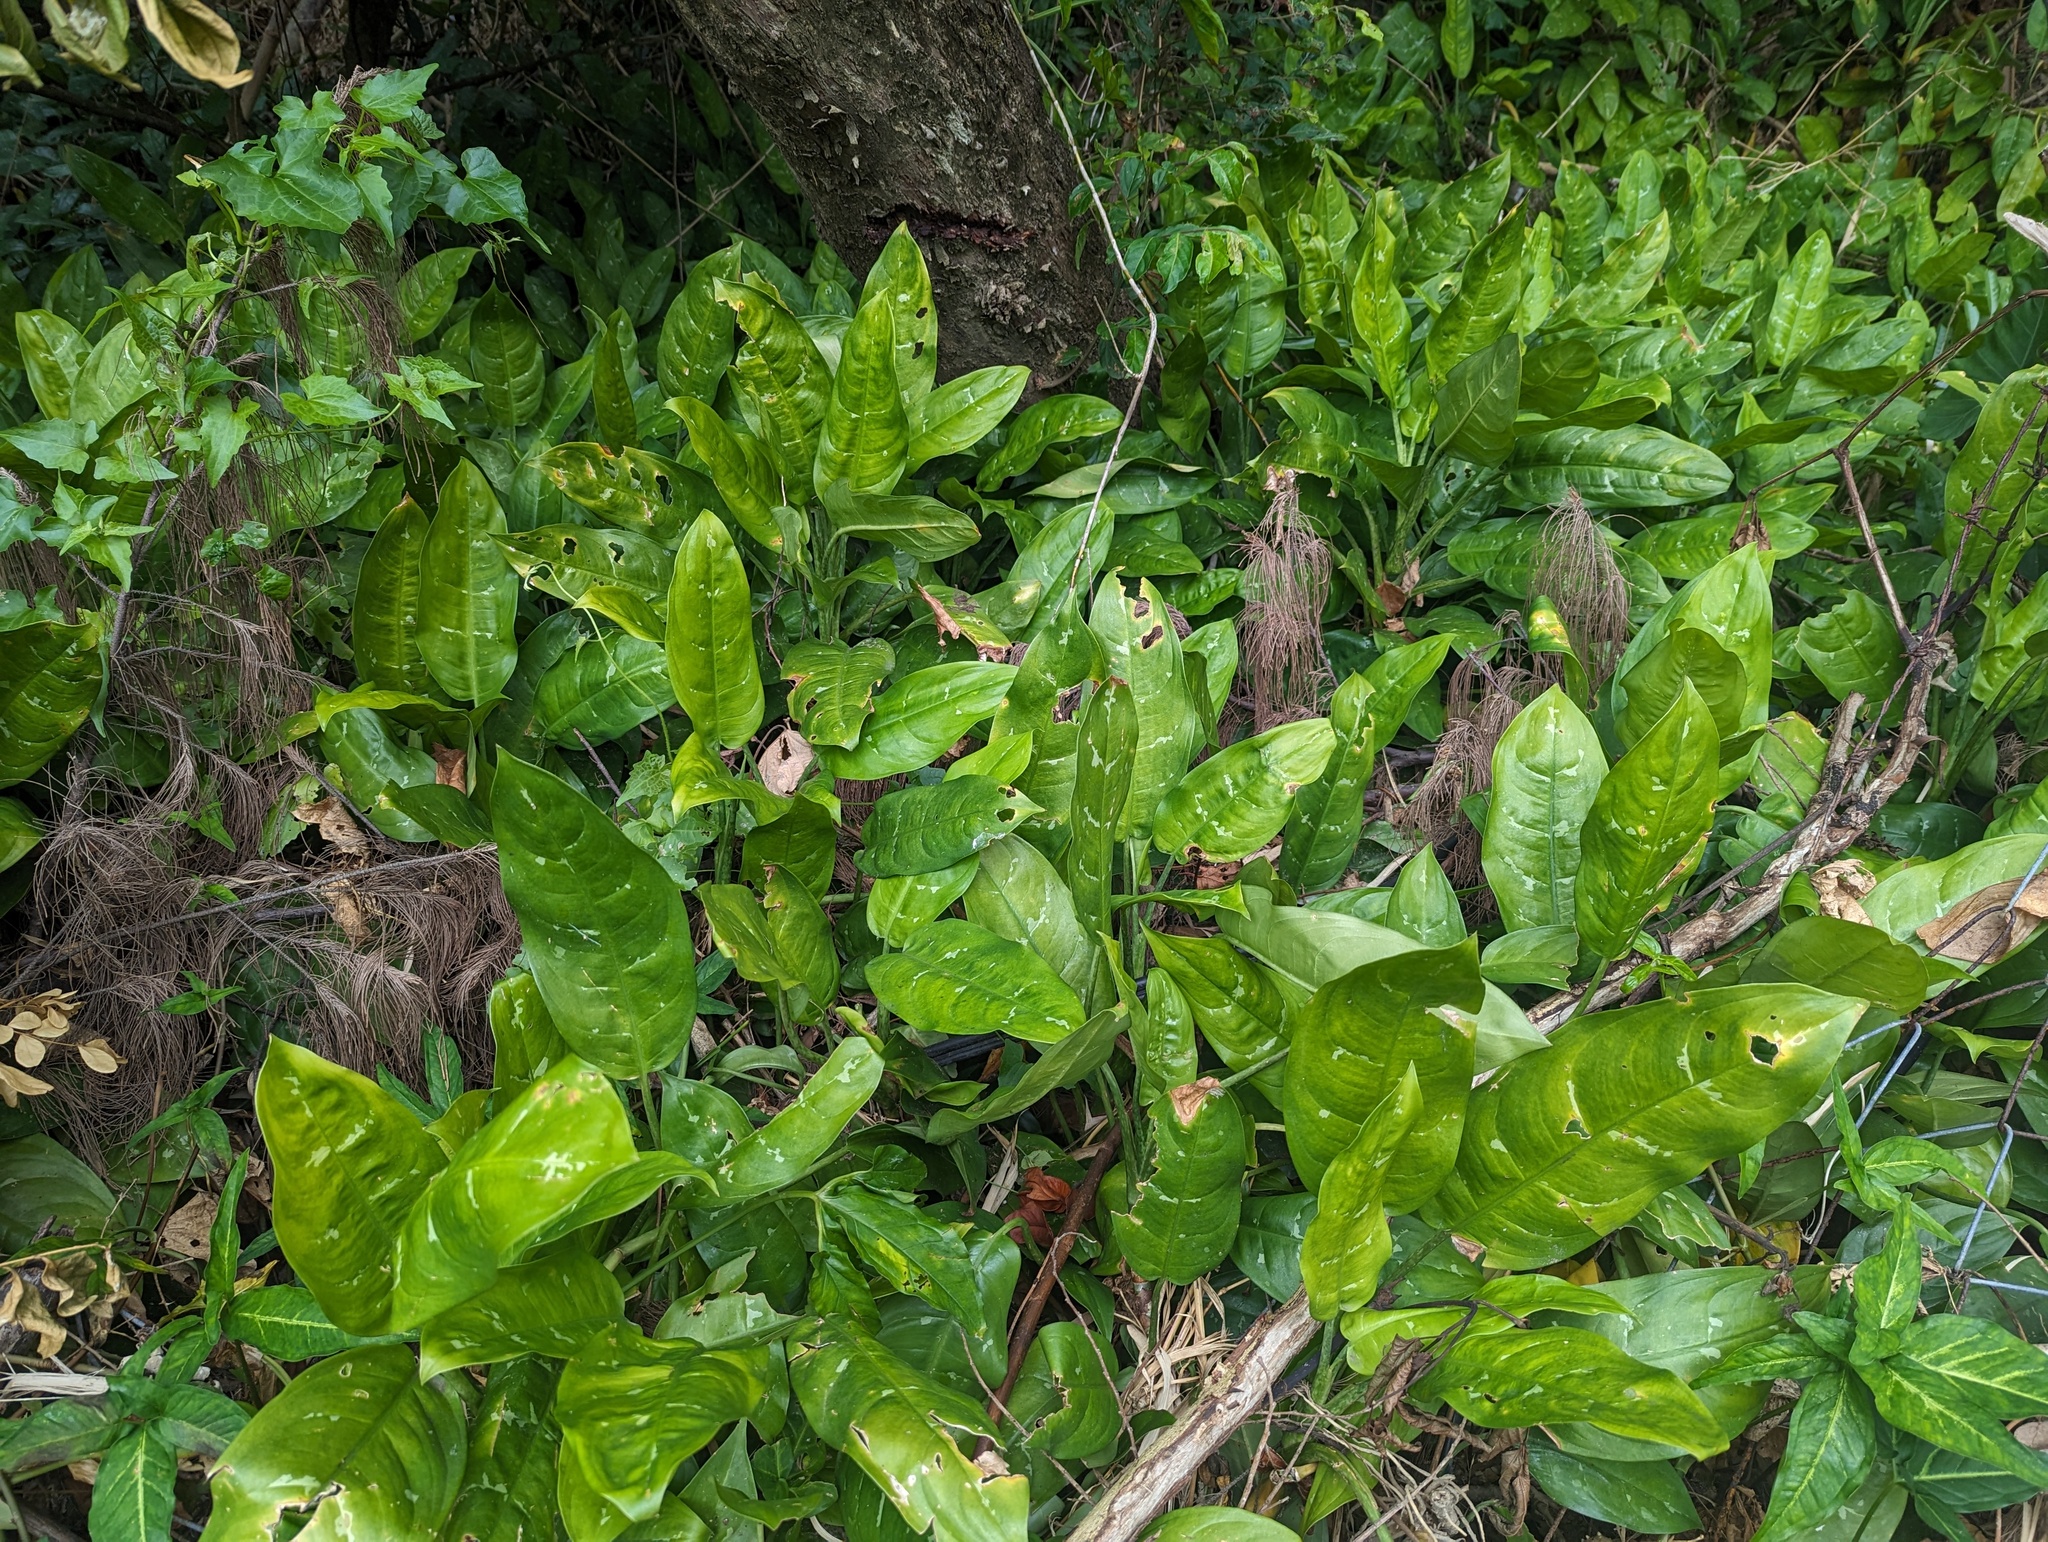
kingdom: Plantae
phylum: Tracheophyta
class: Liliopsida
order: Alismatales
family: Araceae
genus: Dieffenbachia
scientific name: Dieffenbachia seguine
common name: Dumbcane
